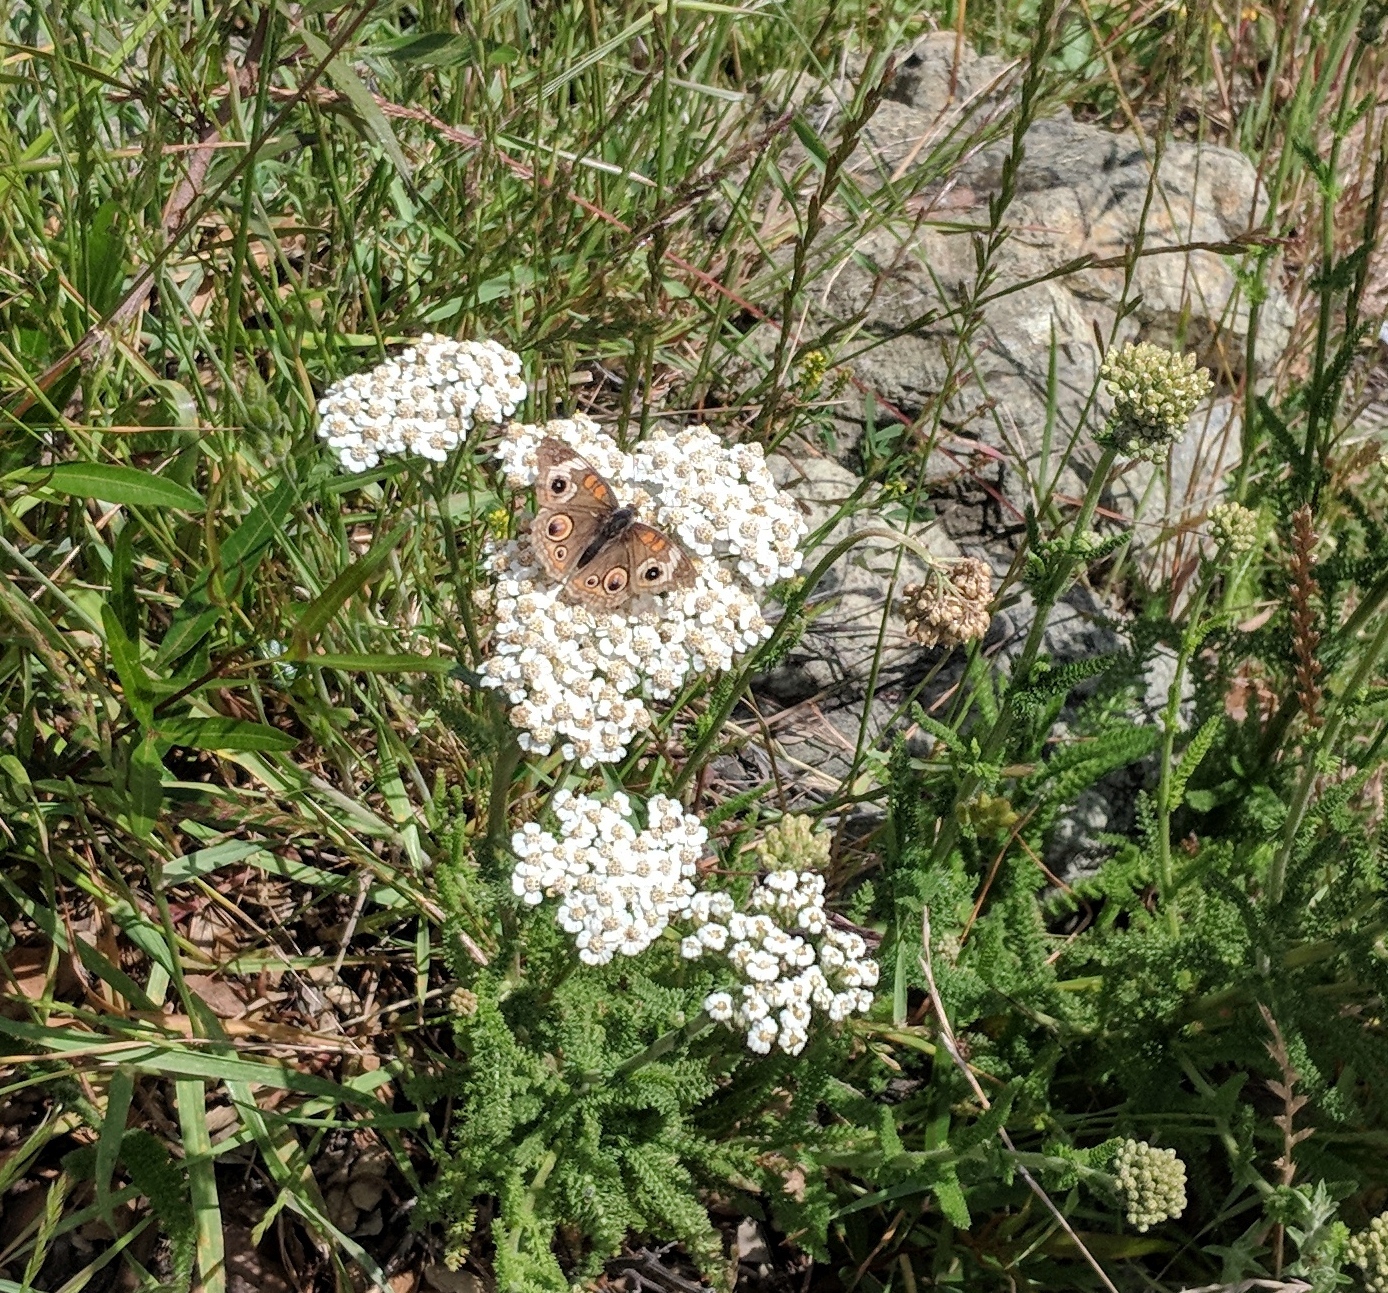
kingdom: Animalia
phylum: Arthropoda
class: Insecta
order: Lepidoptera
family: Nymphalidae
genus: Junonia
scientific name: Junonia grisea
